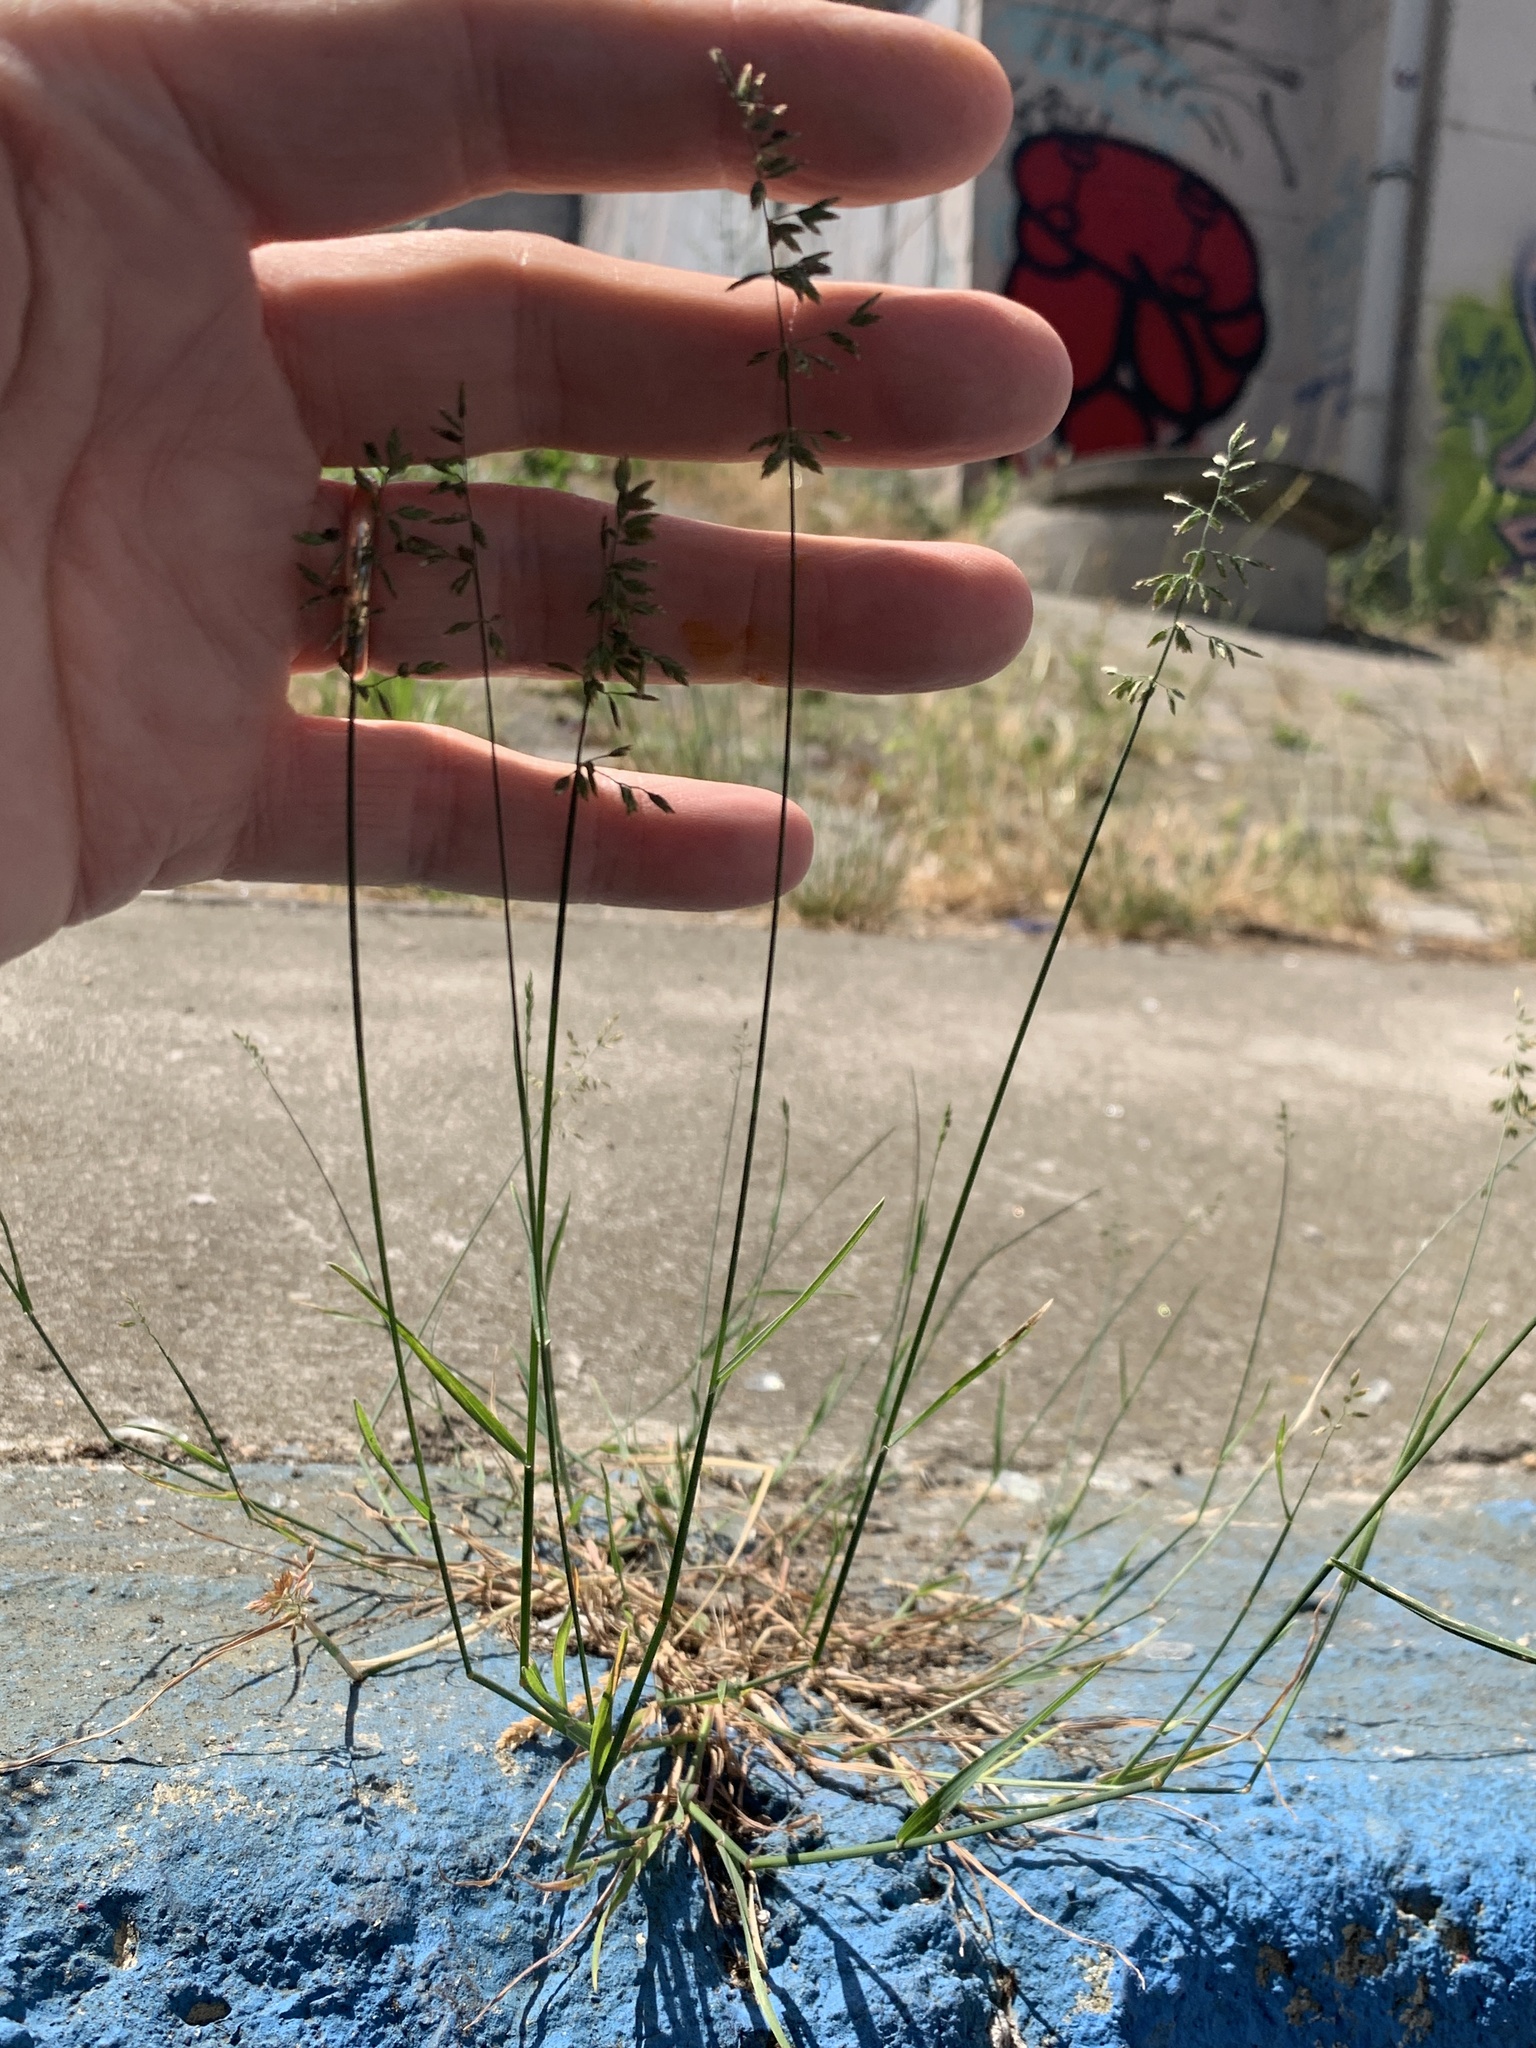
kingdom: Plantae
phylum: Tracheophyta
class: Liliopsida
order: Poales
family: Poaceae
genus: Poa
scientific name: Poa compressa
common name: Canada bluegrass
